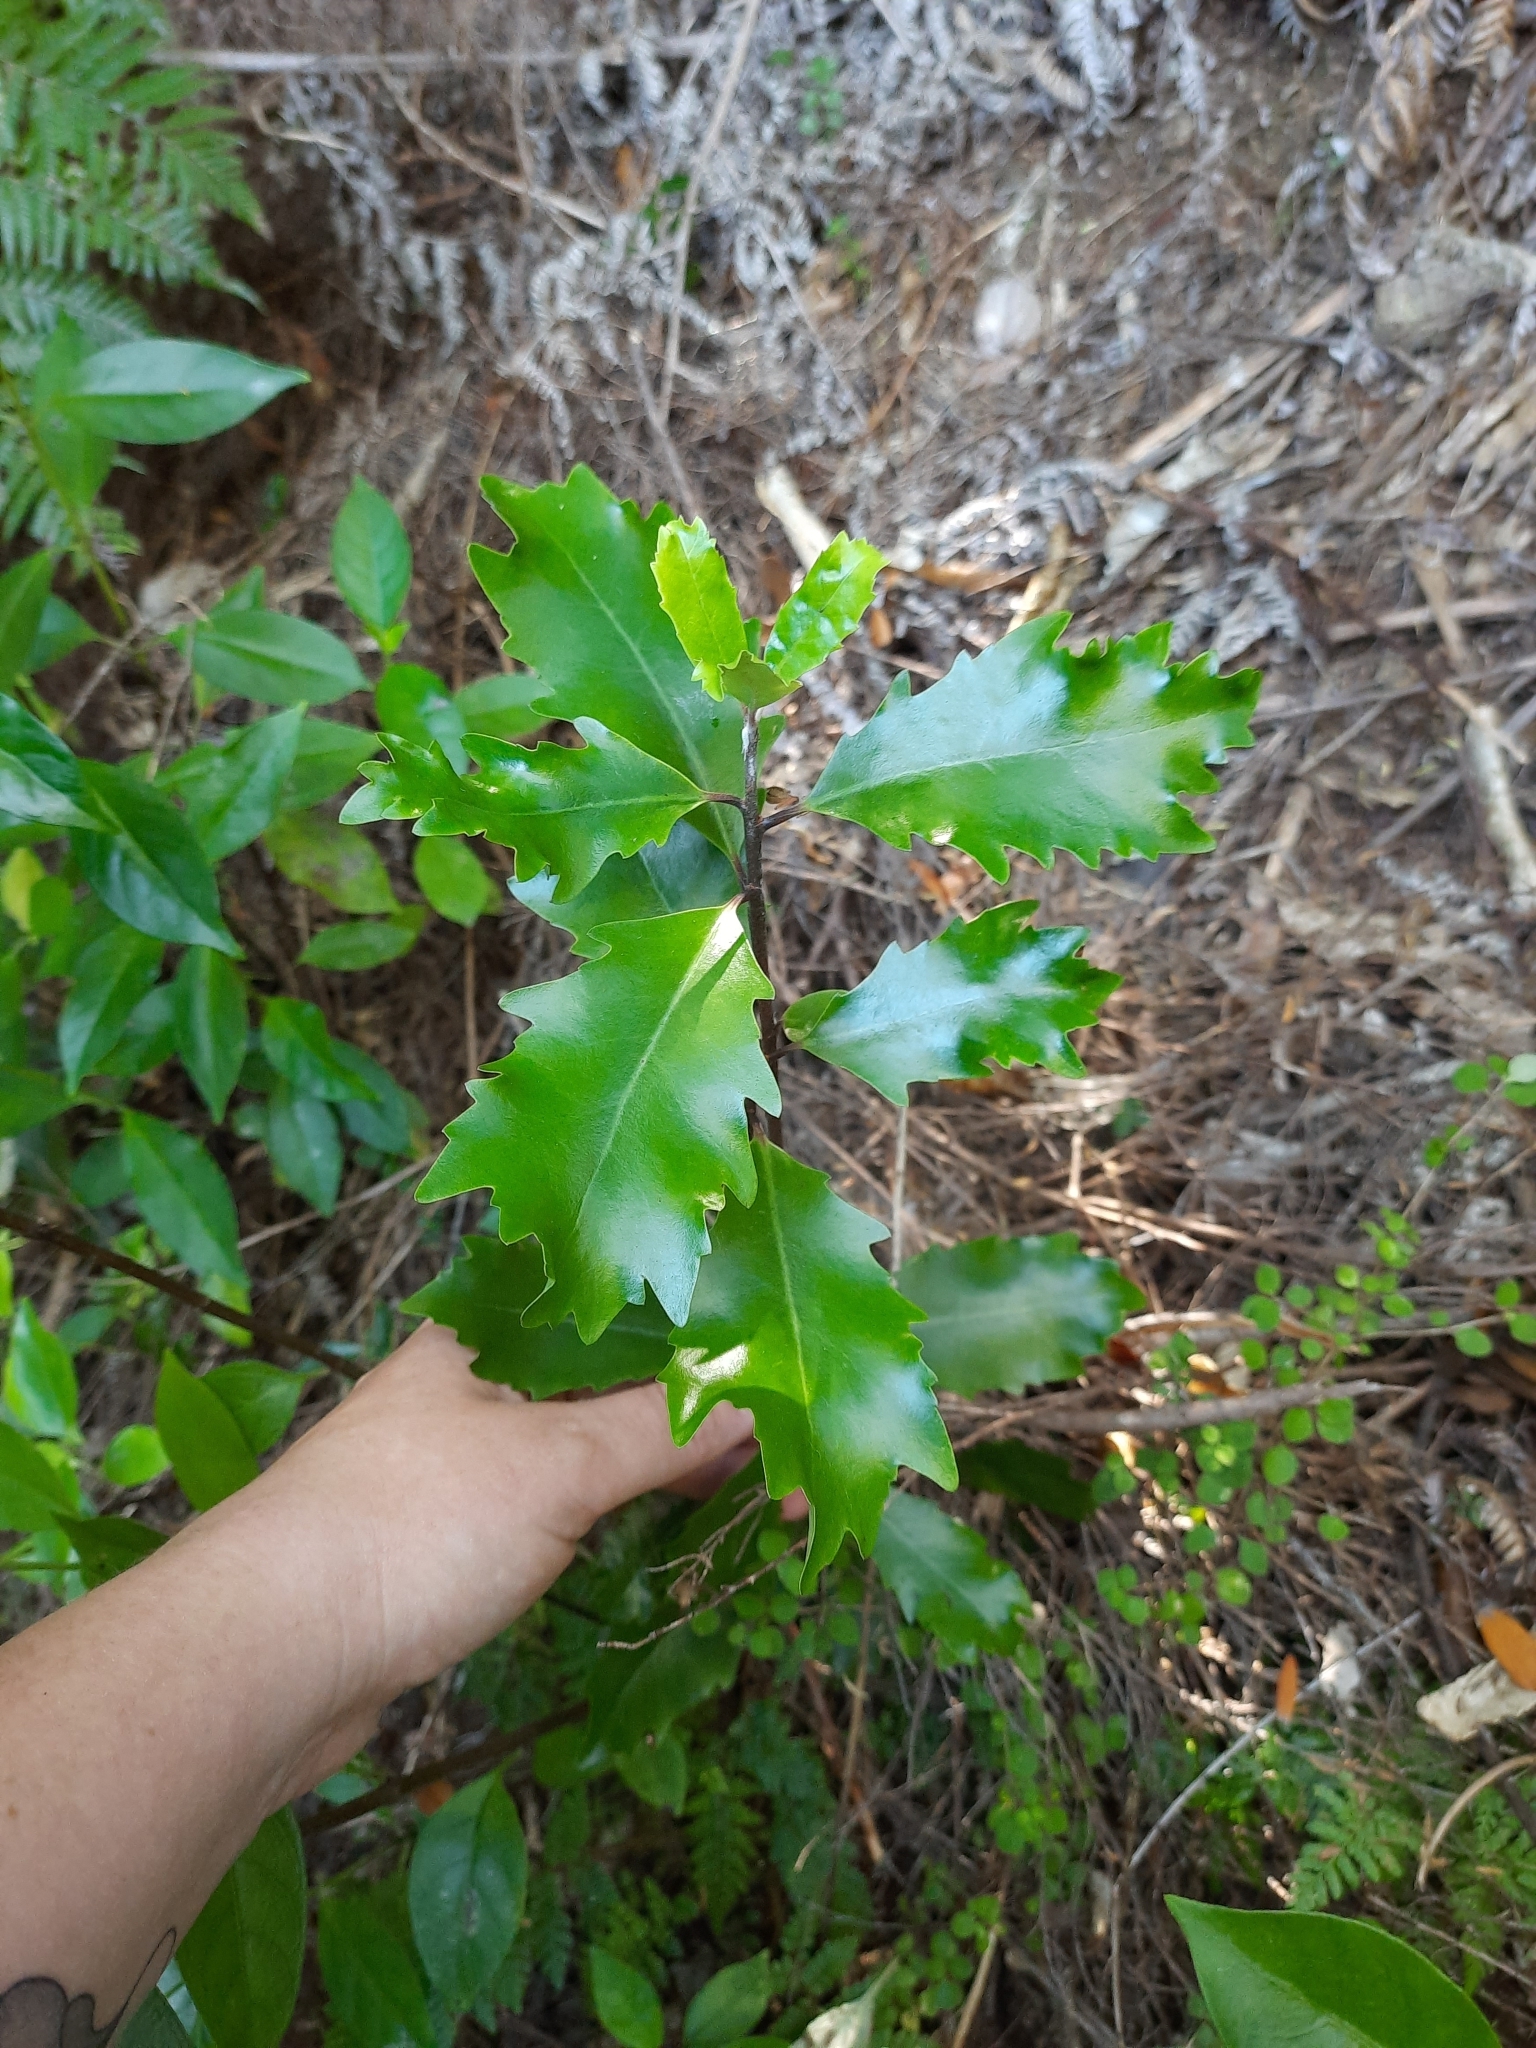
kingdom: Plantae
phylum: Tracheophyta
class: Magnoliopsida
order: Asterales
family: Alseuosmiaceae
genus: Alseuosmia
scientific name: Alseuosmia quercifolia
